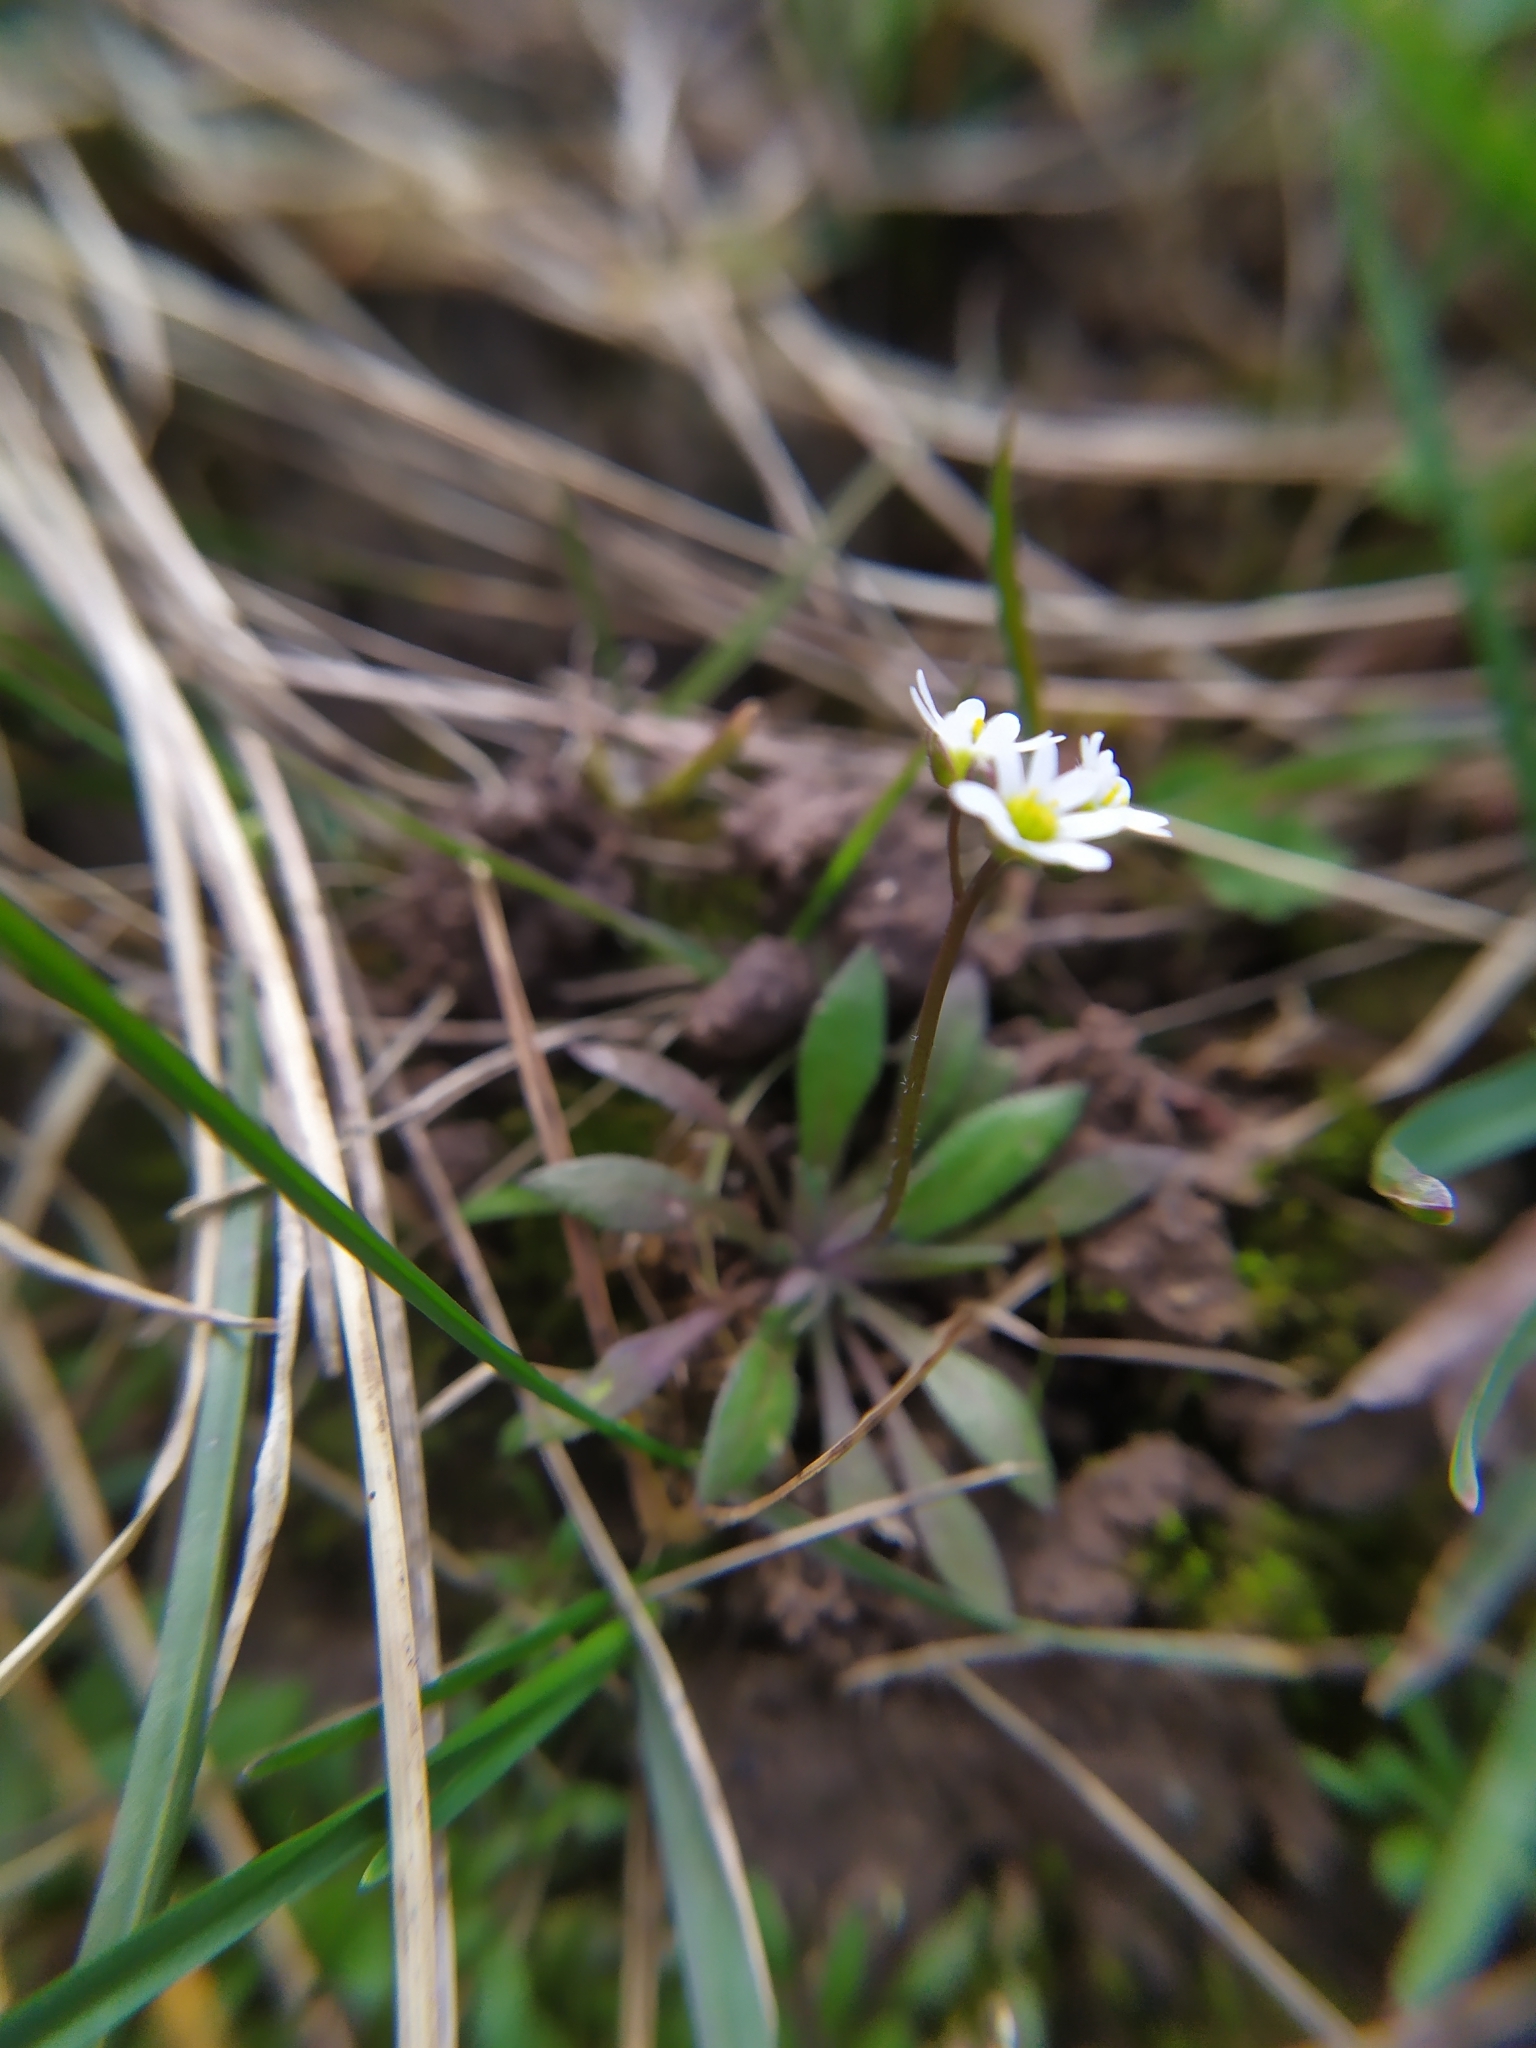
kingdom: Plantae
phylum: Tracheophyta
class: Magnoliopsida
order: Brassicales
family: Brassicaceae
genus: Draba
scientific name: Draba verna
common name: Spring draba
